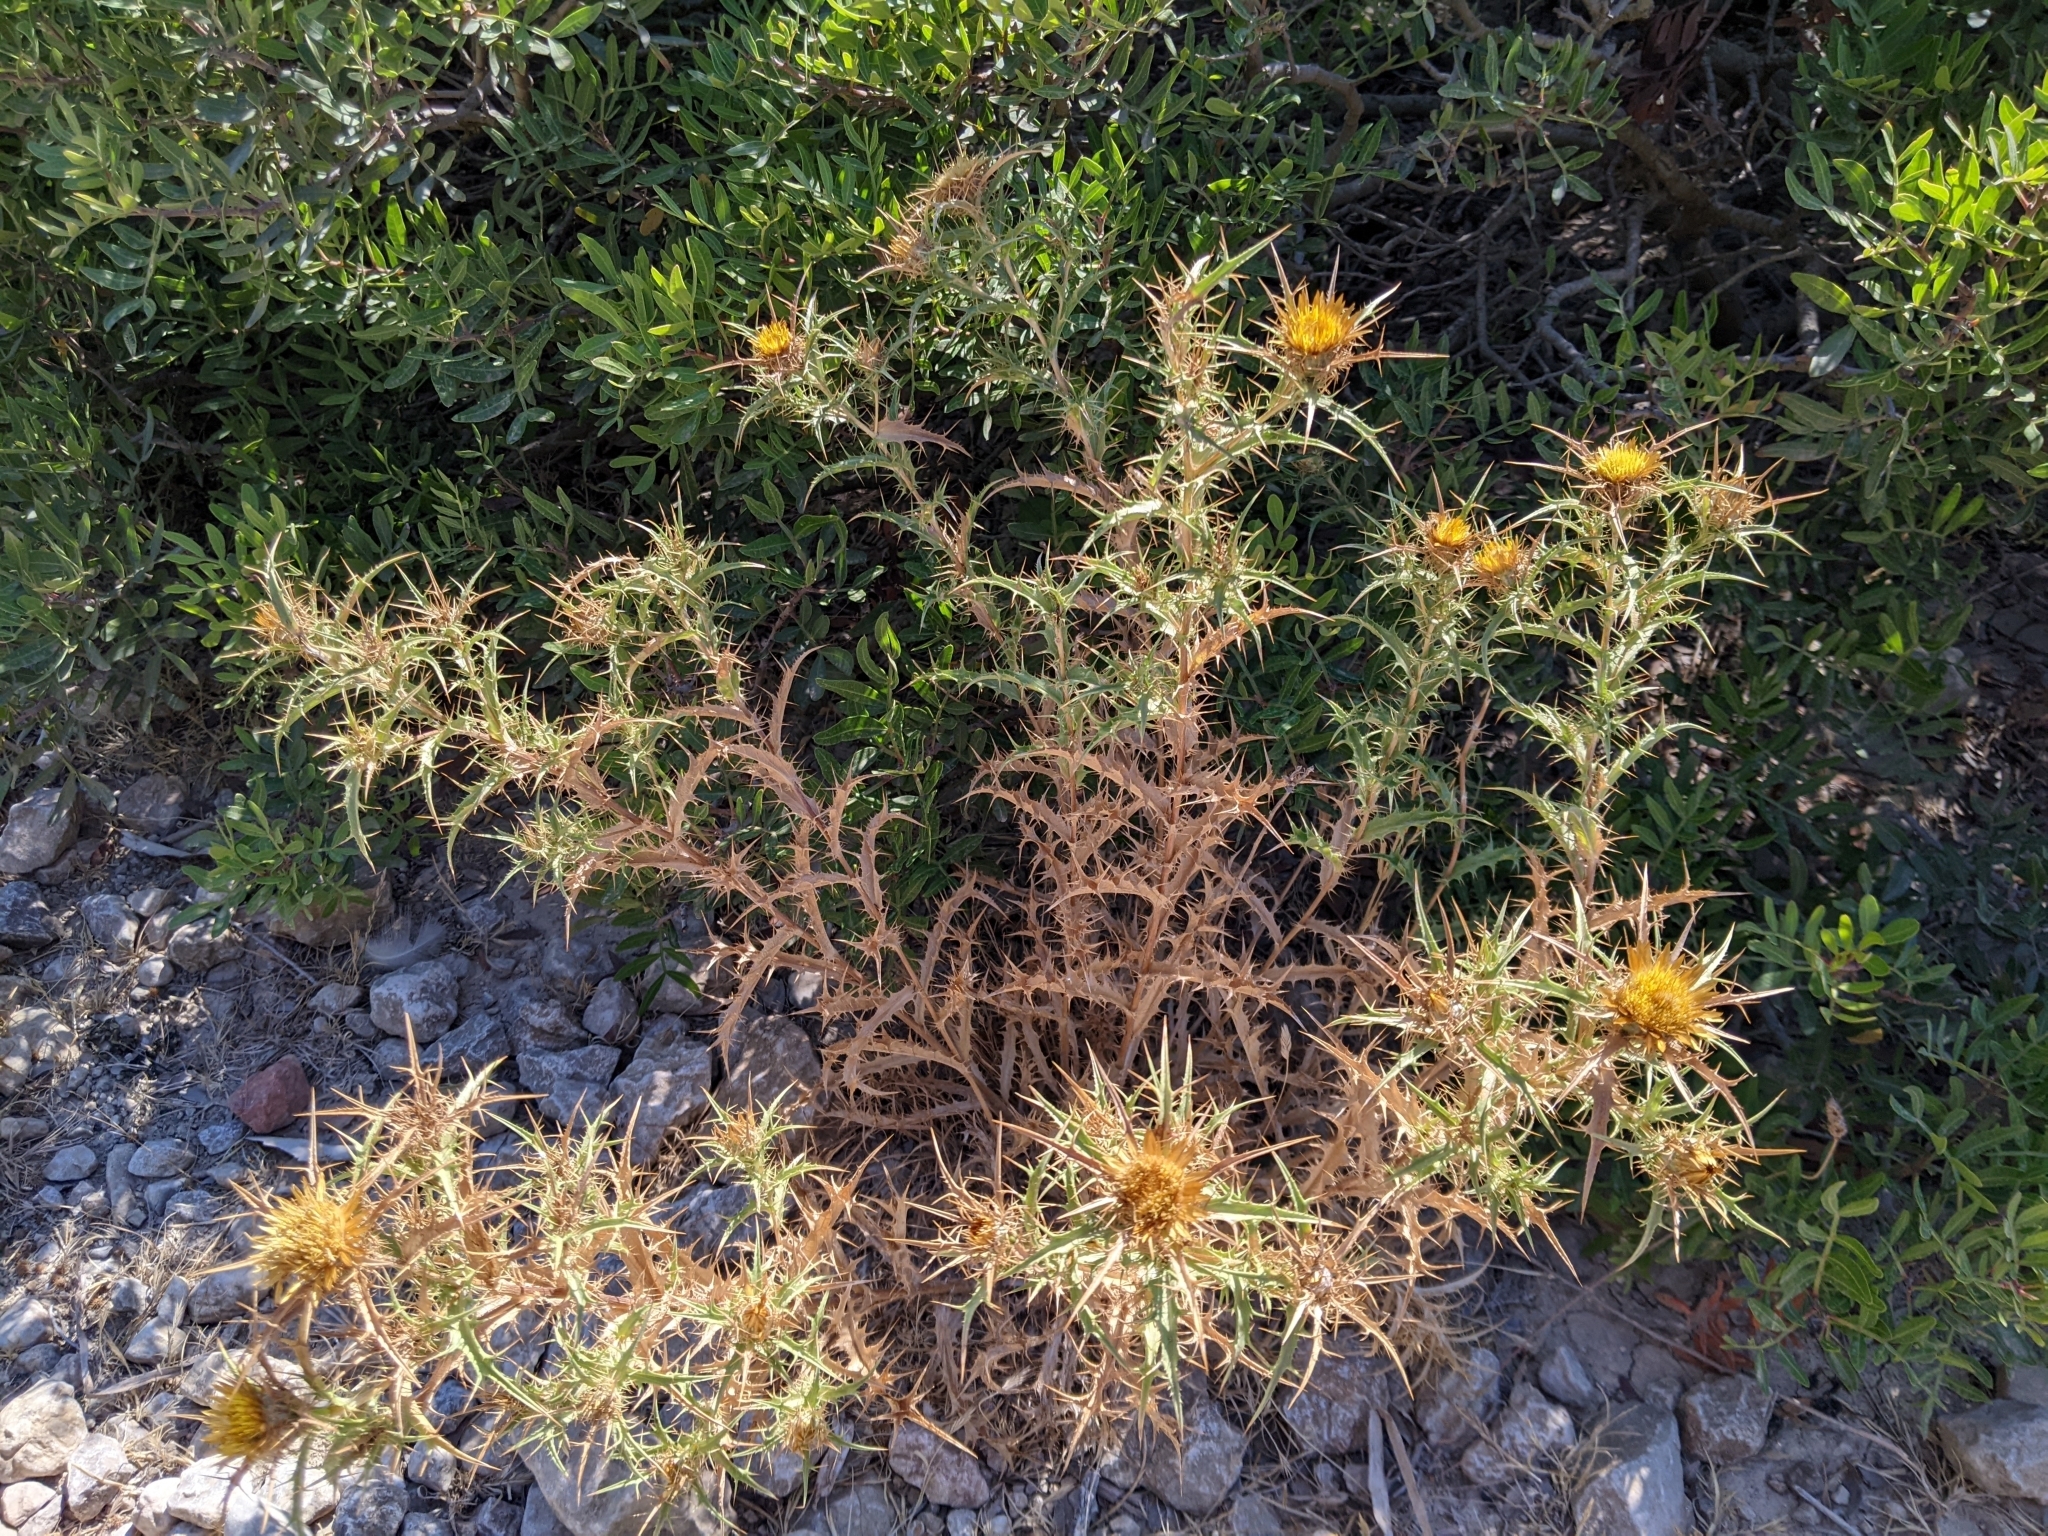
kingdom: Plantae
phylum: Tracheophyta
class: Magnoliopsida
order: Asterales
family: Asteraceae
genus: Carlina
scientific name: Carlina corymbosa
